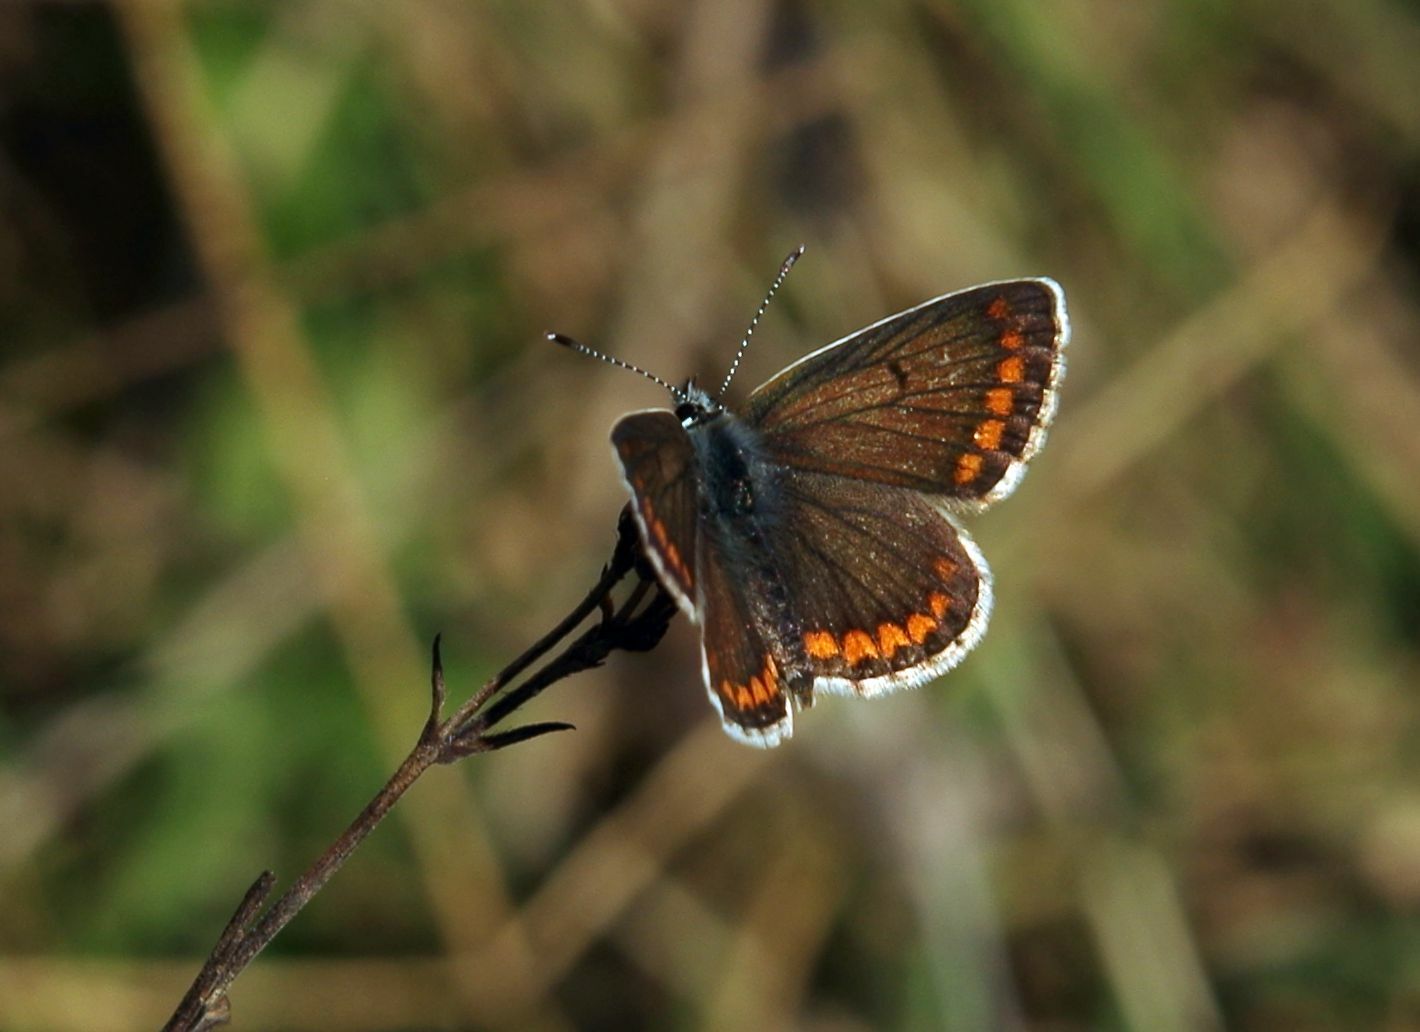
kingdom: Animalia
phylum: Arthropoda
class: Insecta
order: Lepidoptera
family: Lycaenidae
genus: Aricia
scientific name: Aricia agestis
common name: Brown argus
